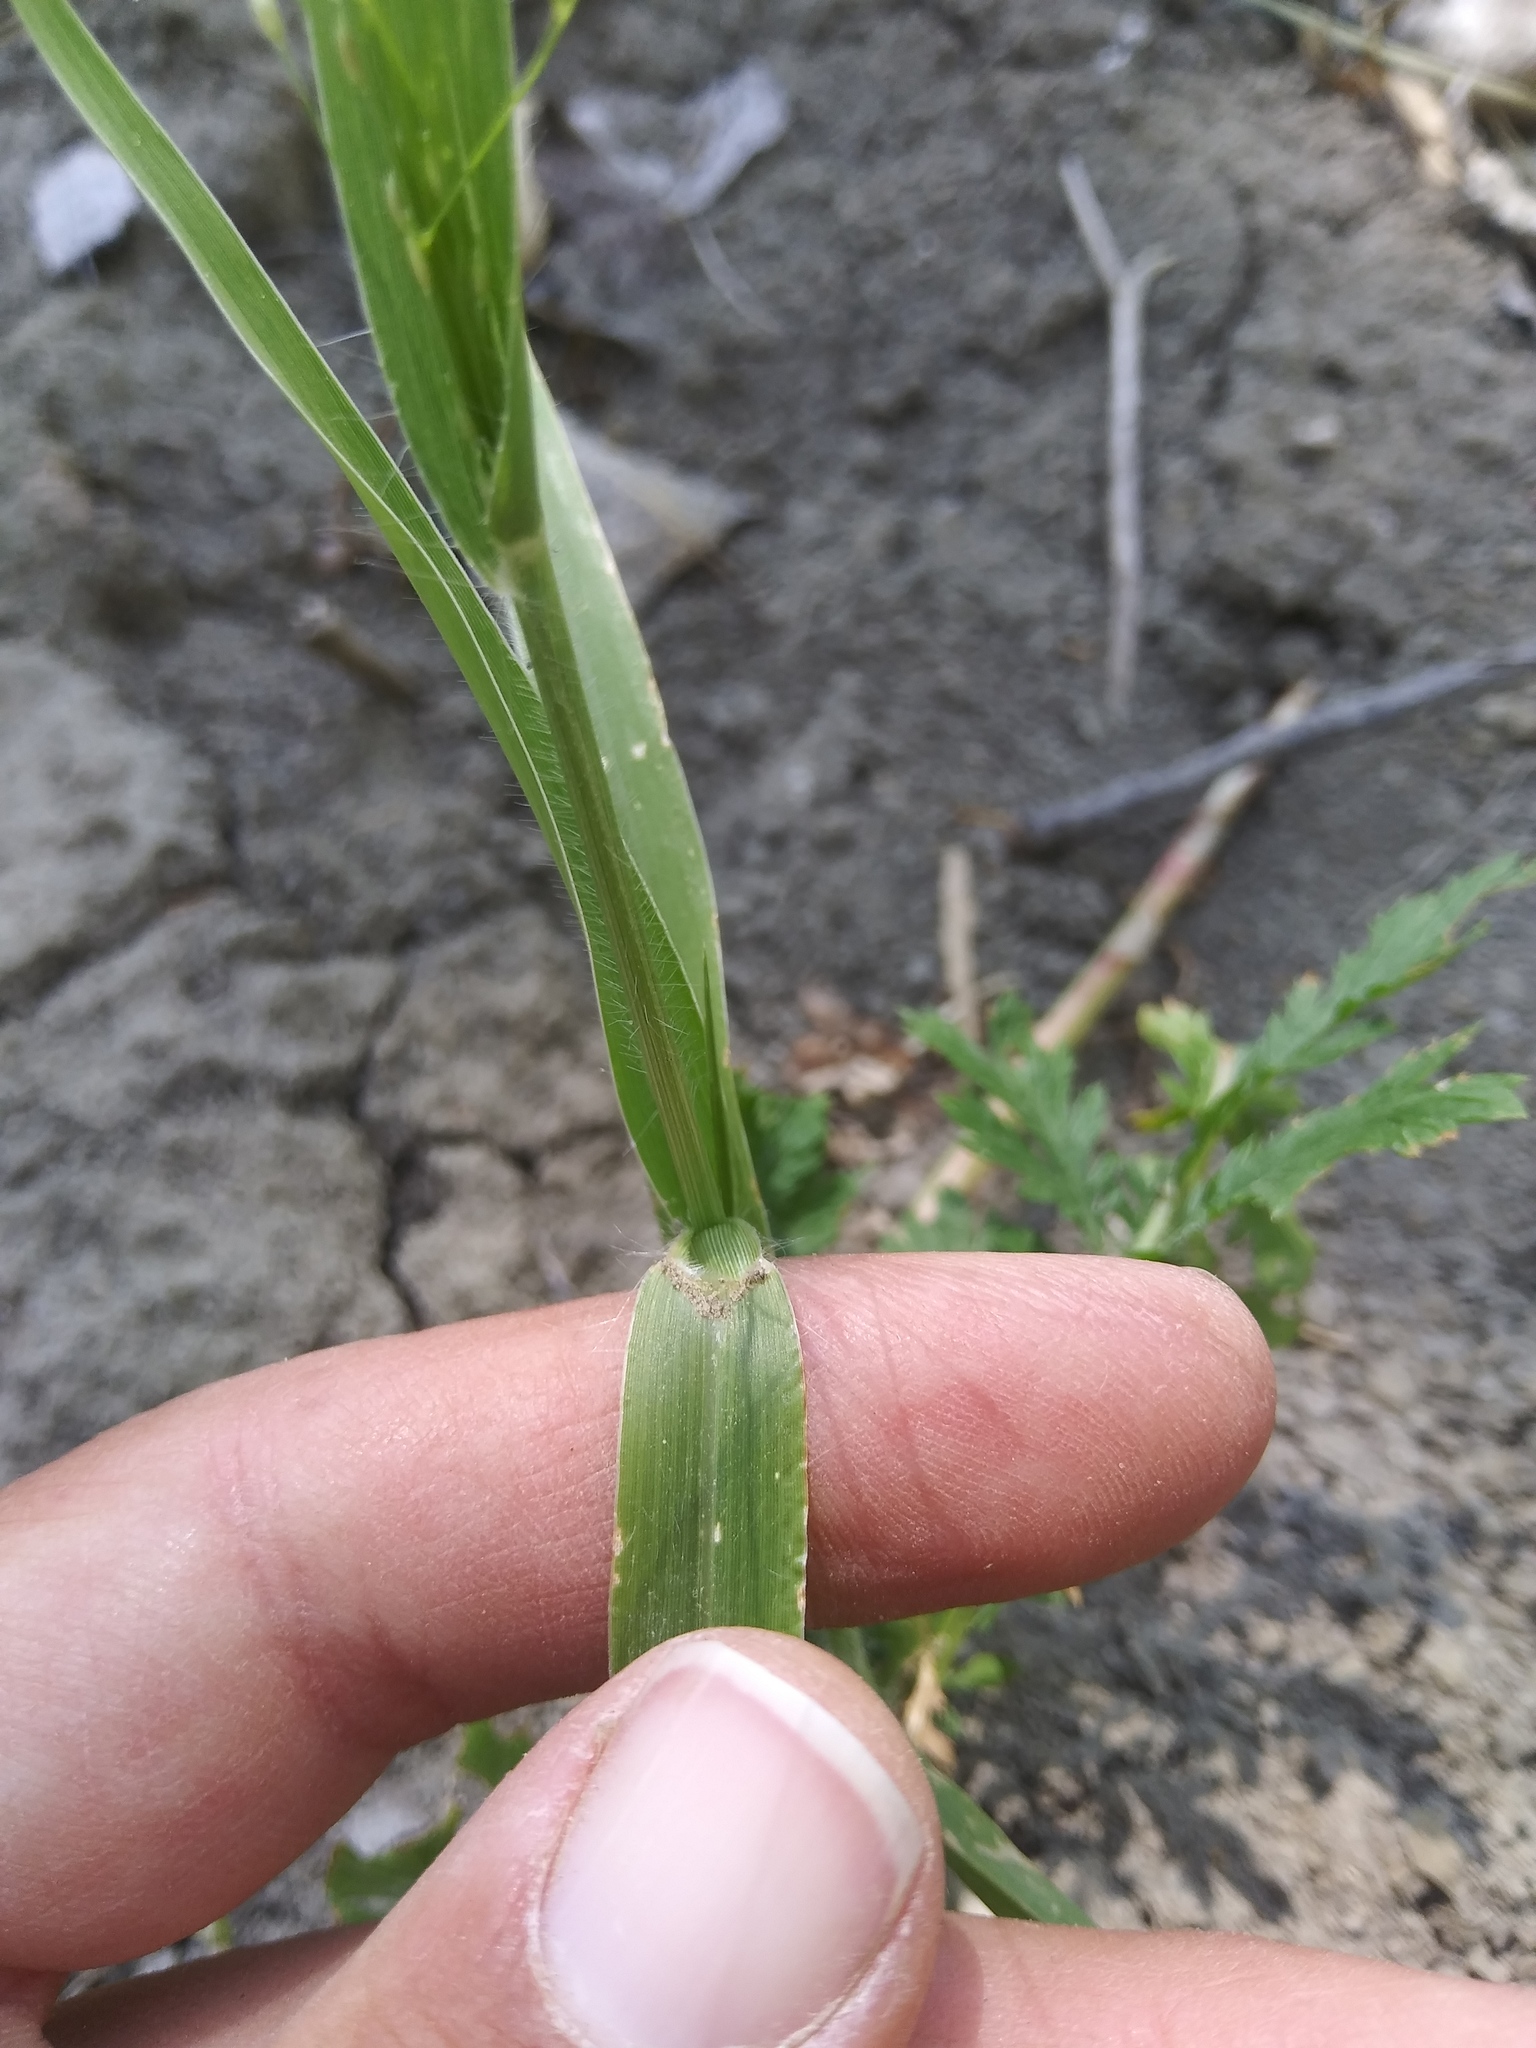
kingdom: Plantae
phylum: Tracheophyta
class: Liliopsida
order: Poales
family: Poaceae
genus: Panicum
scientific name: Panicum capillare
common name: Witch-grass
